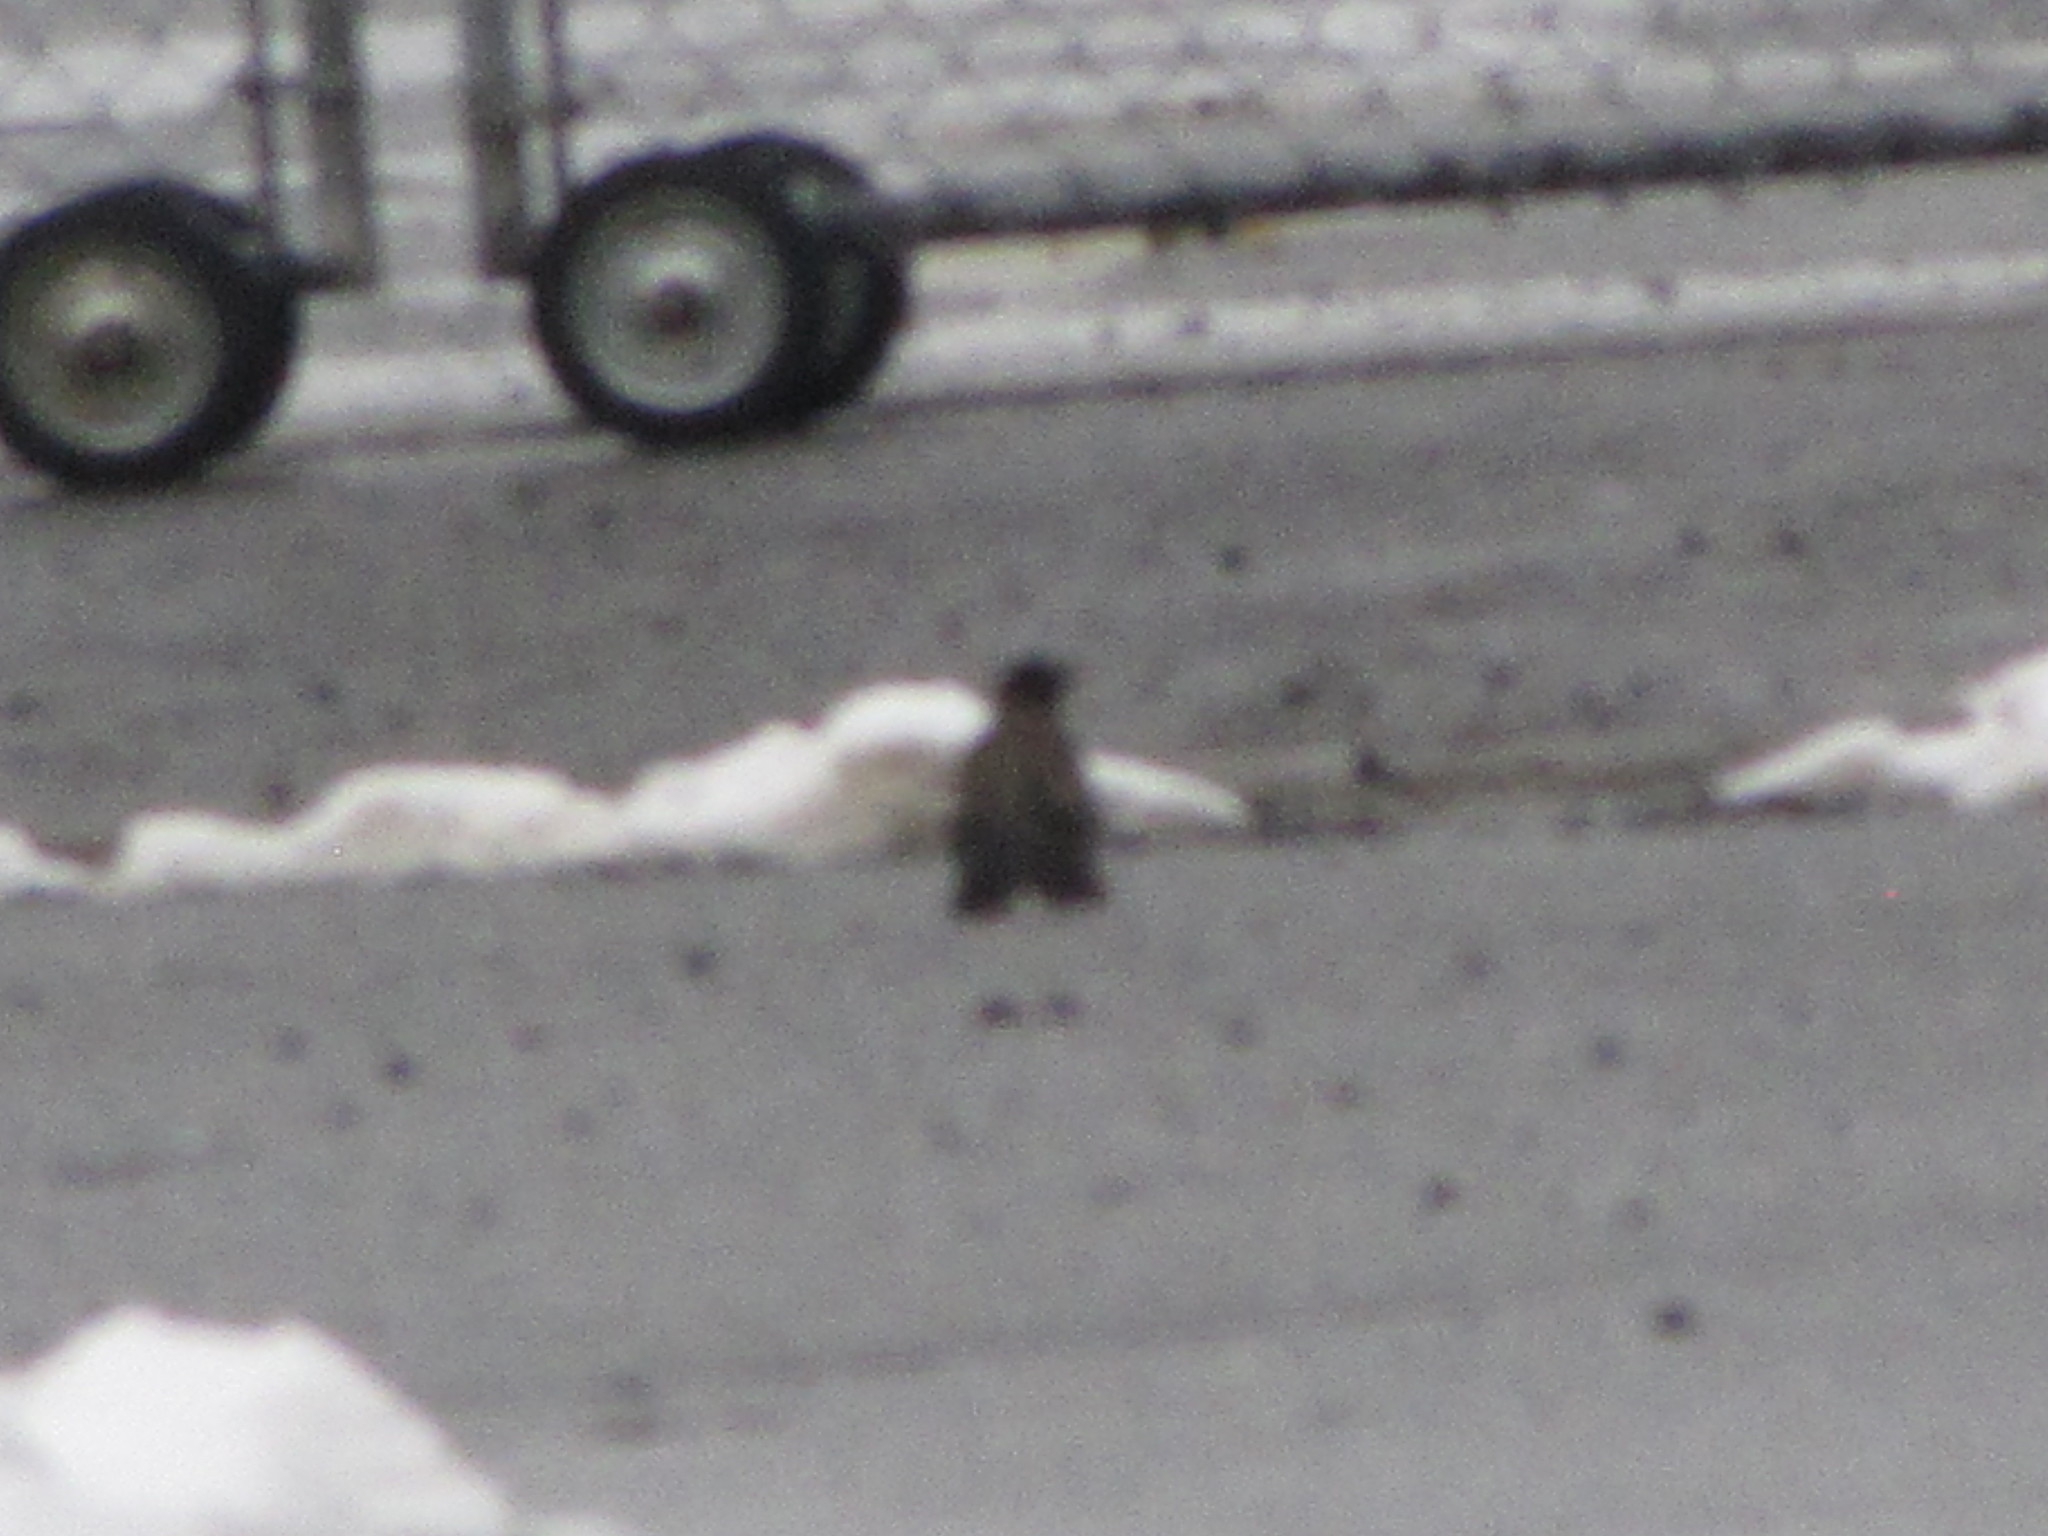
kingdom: Animalia
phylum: Chordata
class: Aves
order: Passeriformes
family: Turdidae
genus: Turdus
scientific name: Turdus migratorius
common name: American robin
